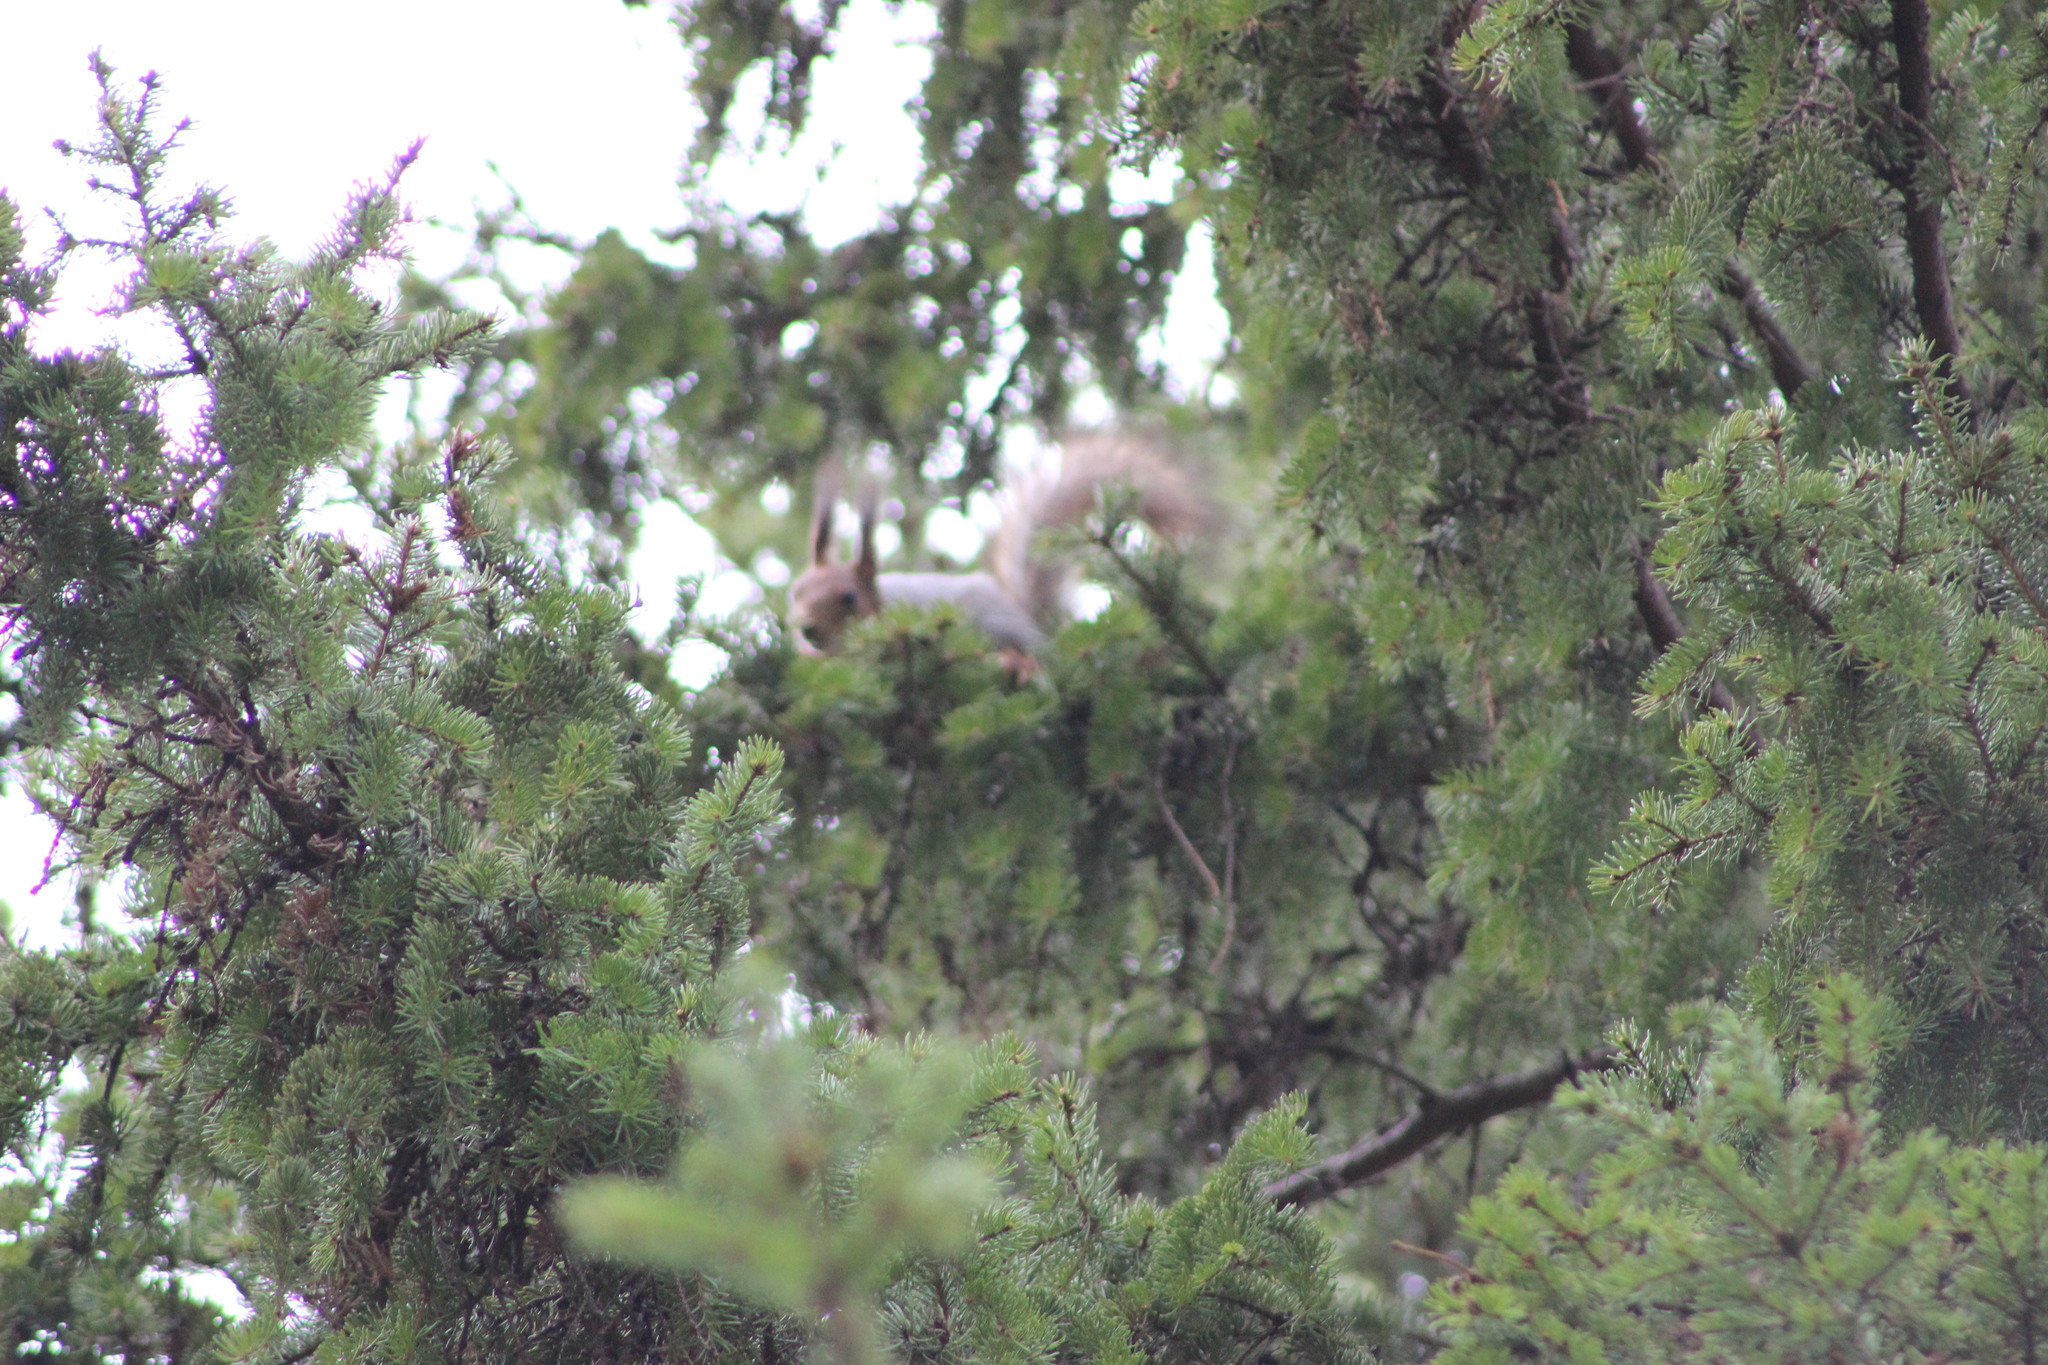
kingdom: Animalia
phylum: Chordata
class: Mammalia
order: Rodentia
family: Sciuridae
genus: Sciurus
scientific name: Sciurus vulgaris
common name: Eurasian red squirrel
